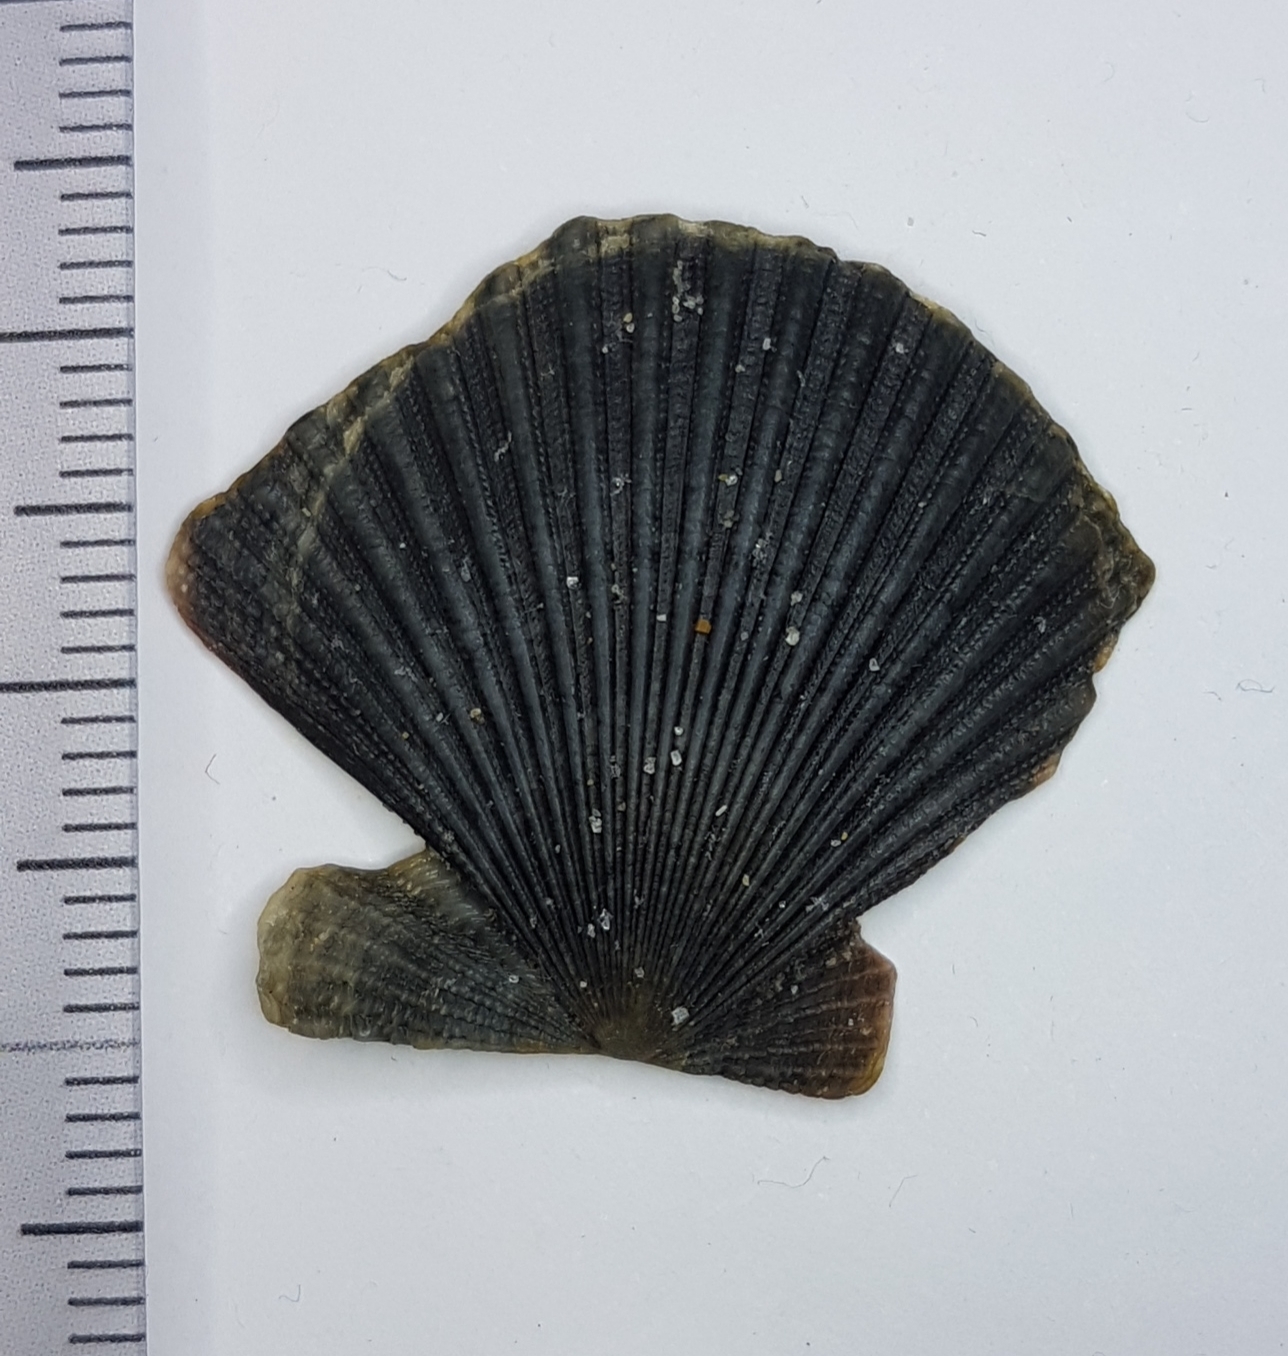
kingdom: Animalia
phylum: Mollusca
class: Bivalvia
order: Pectinida
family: Pectinidae
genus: Aequipecten
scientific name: Aequipecten opercularis
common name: Queen scallop
